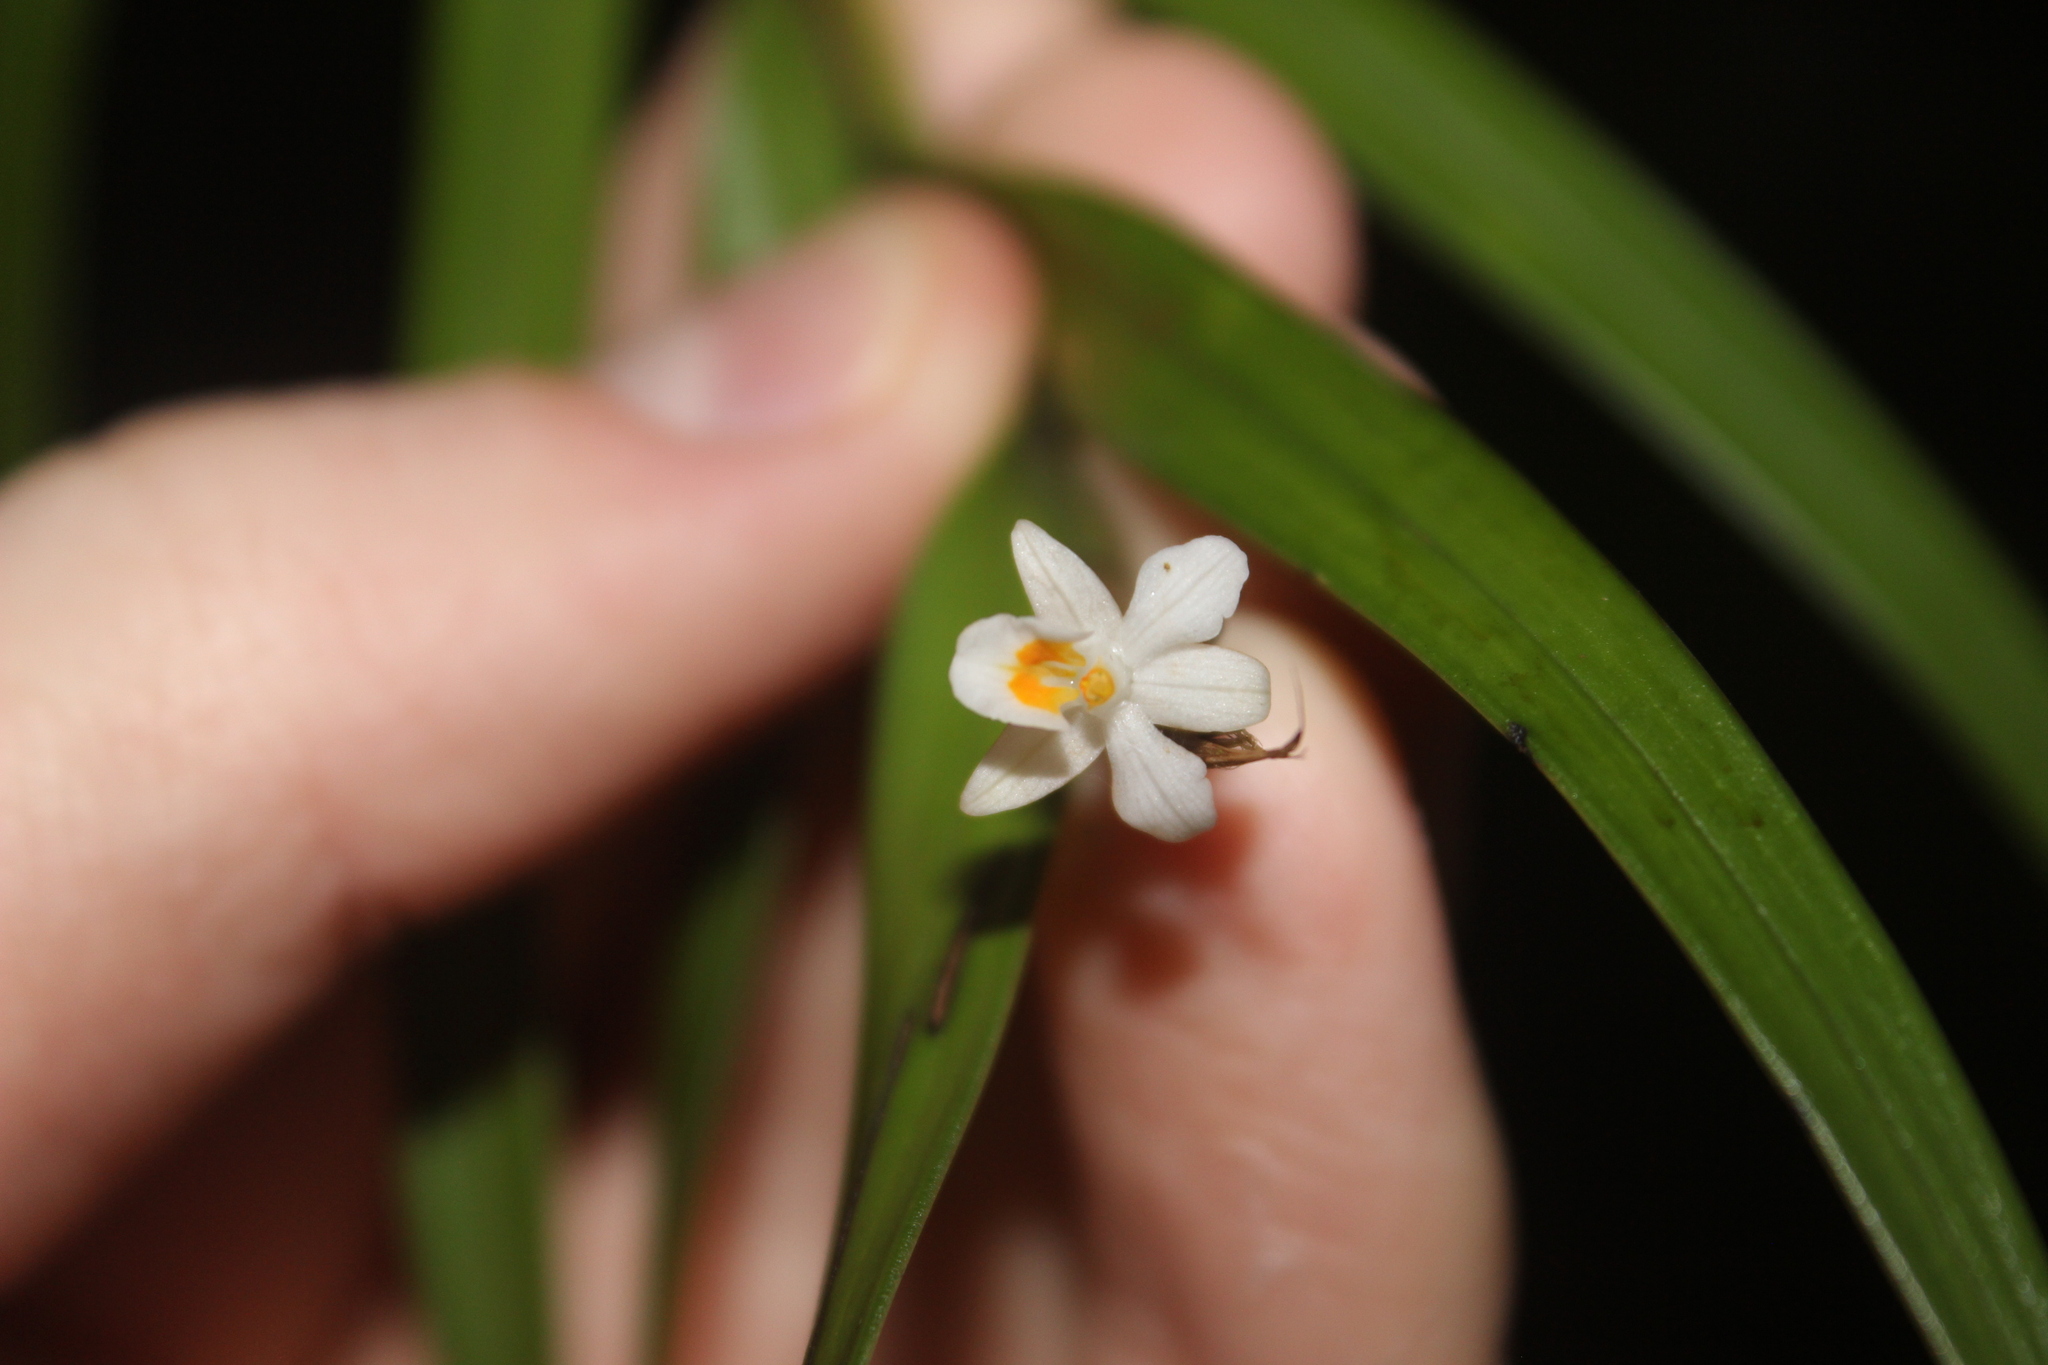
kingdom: Plantae
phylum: Tracheophyta
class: Liliopsida
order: Asparagales
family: Orchidaceae
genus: Earina
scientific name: Earina autumnalis
